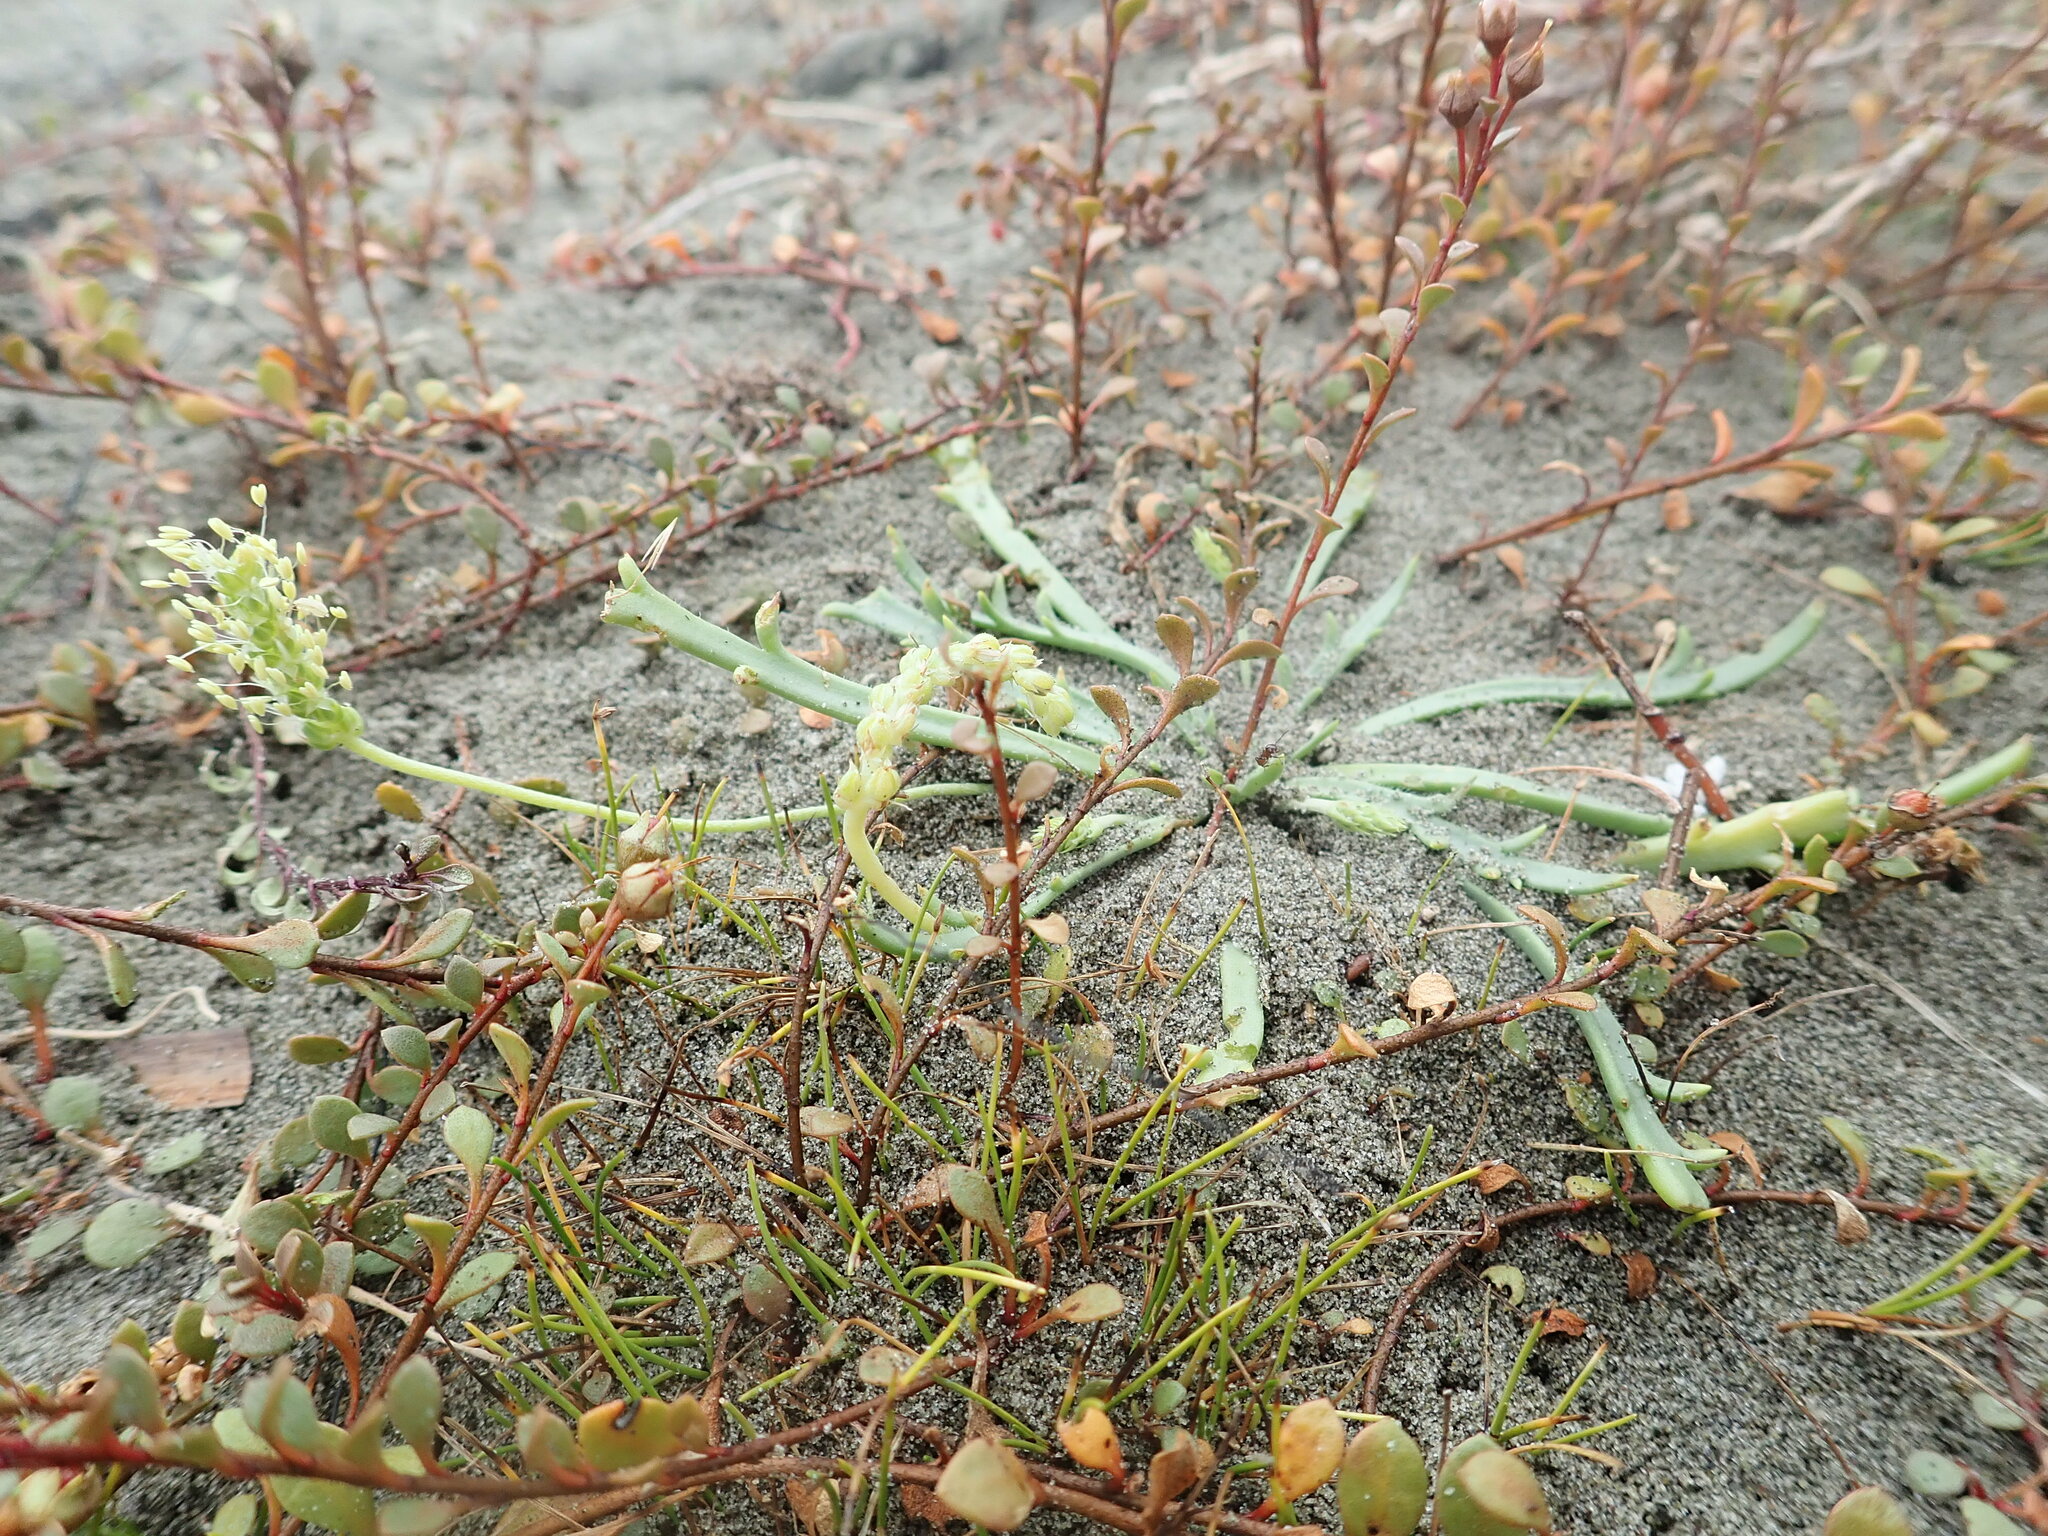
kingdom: Plantae
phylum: Tracheophyta
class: Magnoliopsida
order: Lamiales
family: Plantaginaceae
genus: Plantago
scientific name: Plantago coronopus
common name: Buck's-horn plantain
